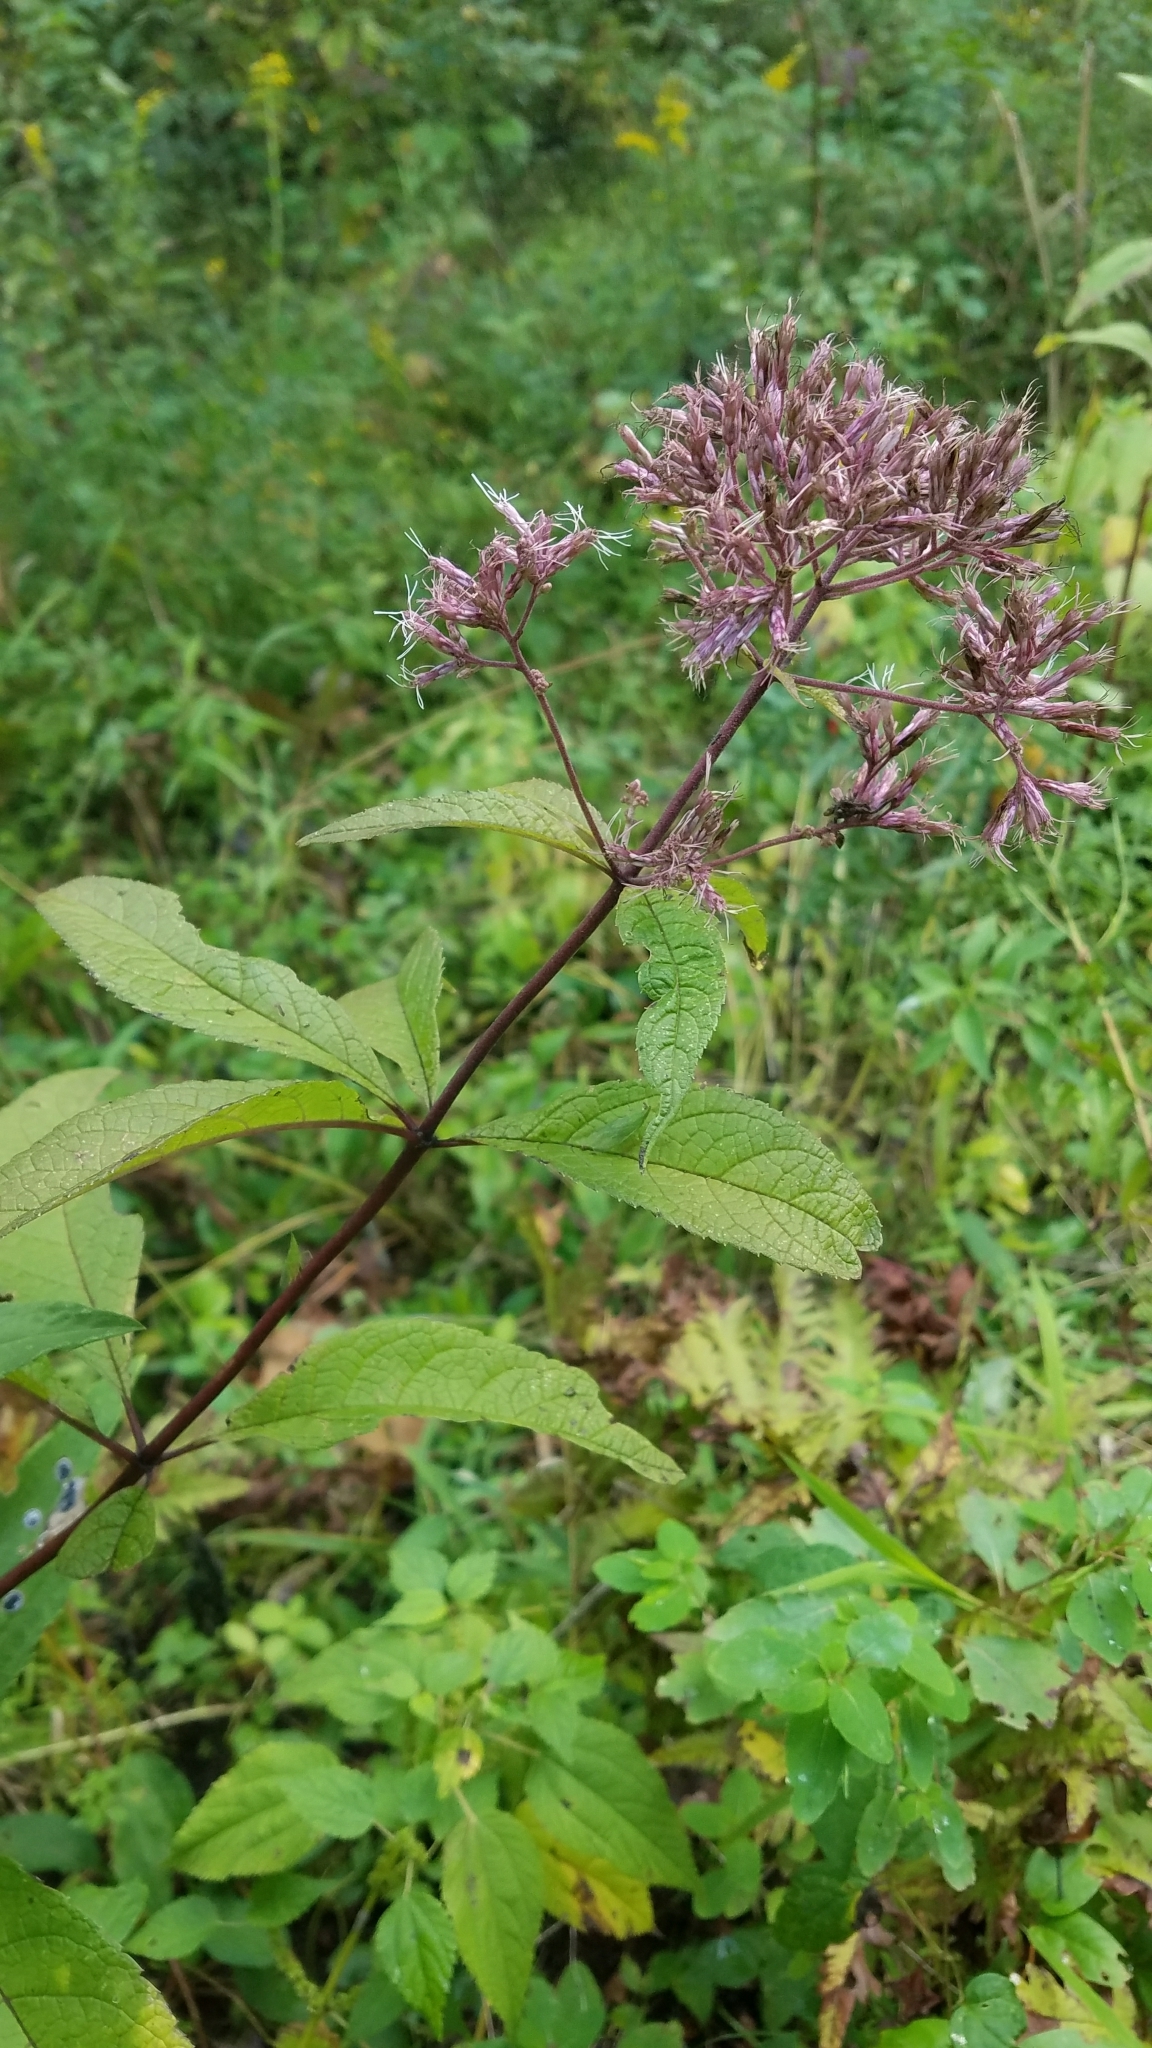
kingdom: Plantae
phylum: Tracheophyta
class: Magnoliopsida
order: Asterales
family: Asteraceae
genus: Eutrochium
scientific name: Eutrochium maculatum
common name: Spotted joe pye weed
